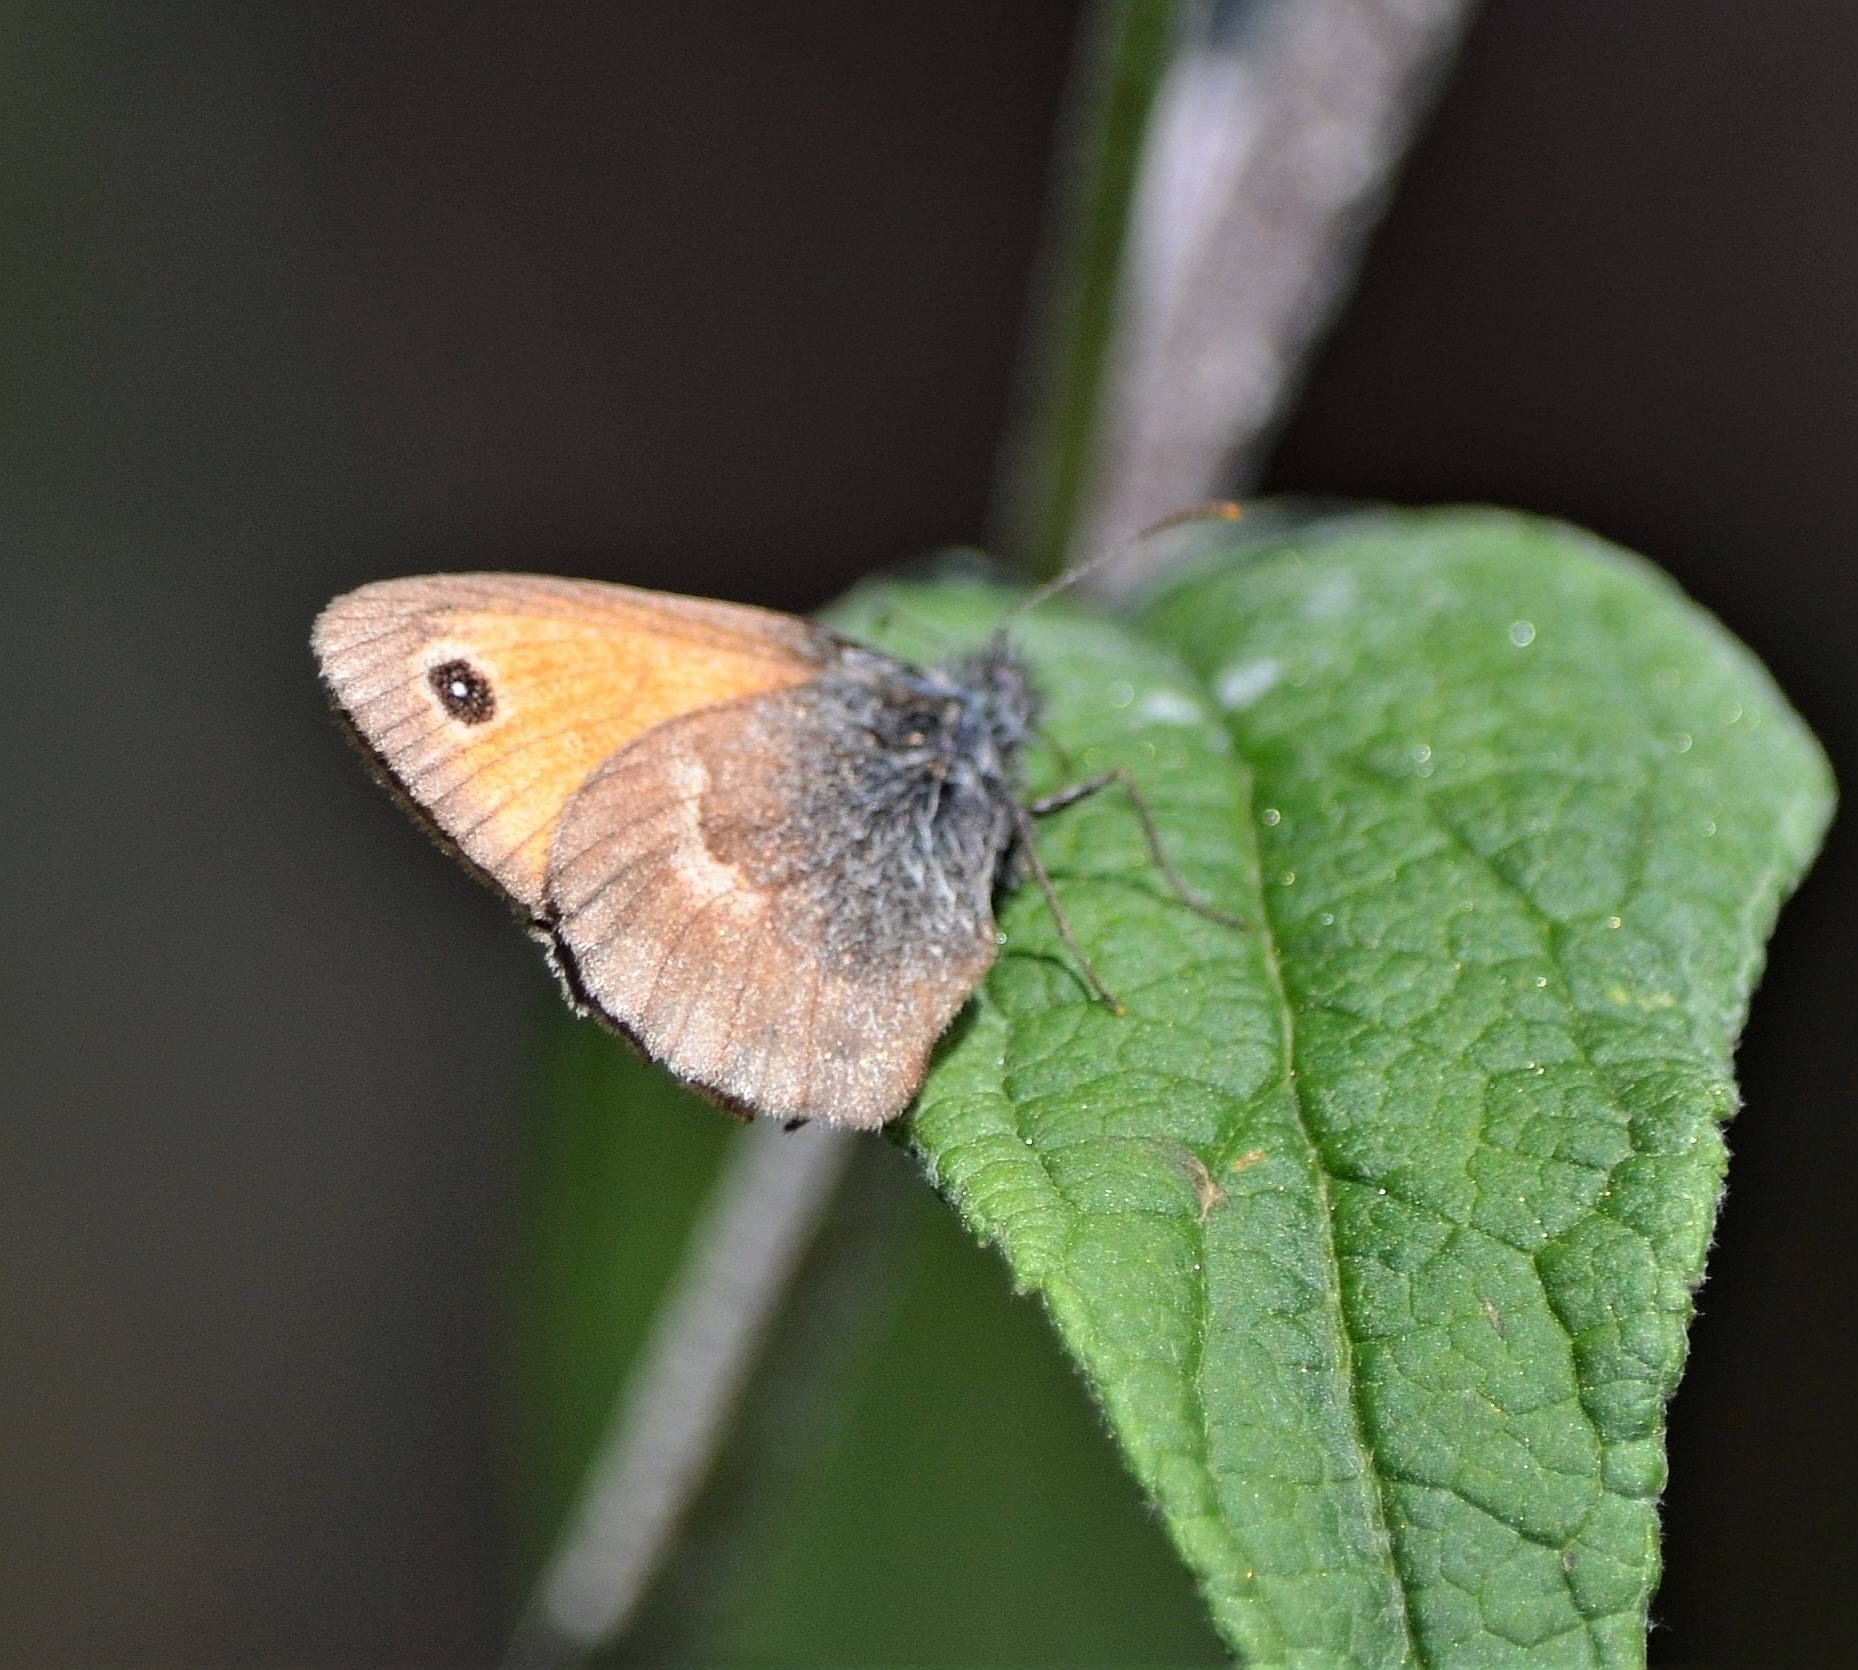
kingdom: Animalia
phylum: Arthropoda
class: Insecta
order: Lepidoptera
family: Nymphalidae
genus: Coenonympha
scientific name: Coenonympha pamphilus
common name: Small heath
